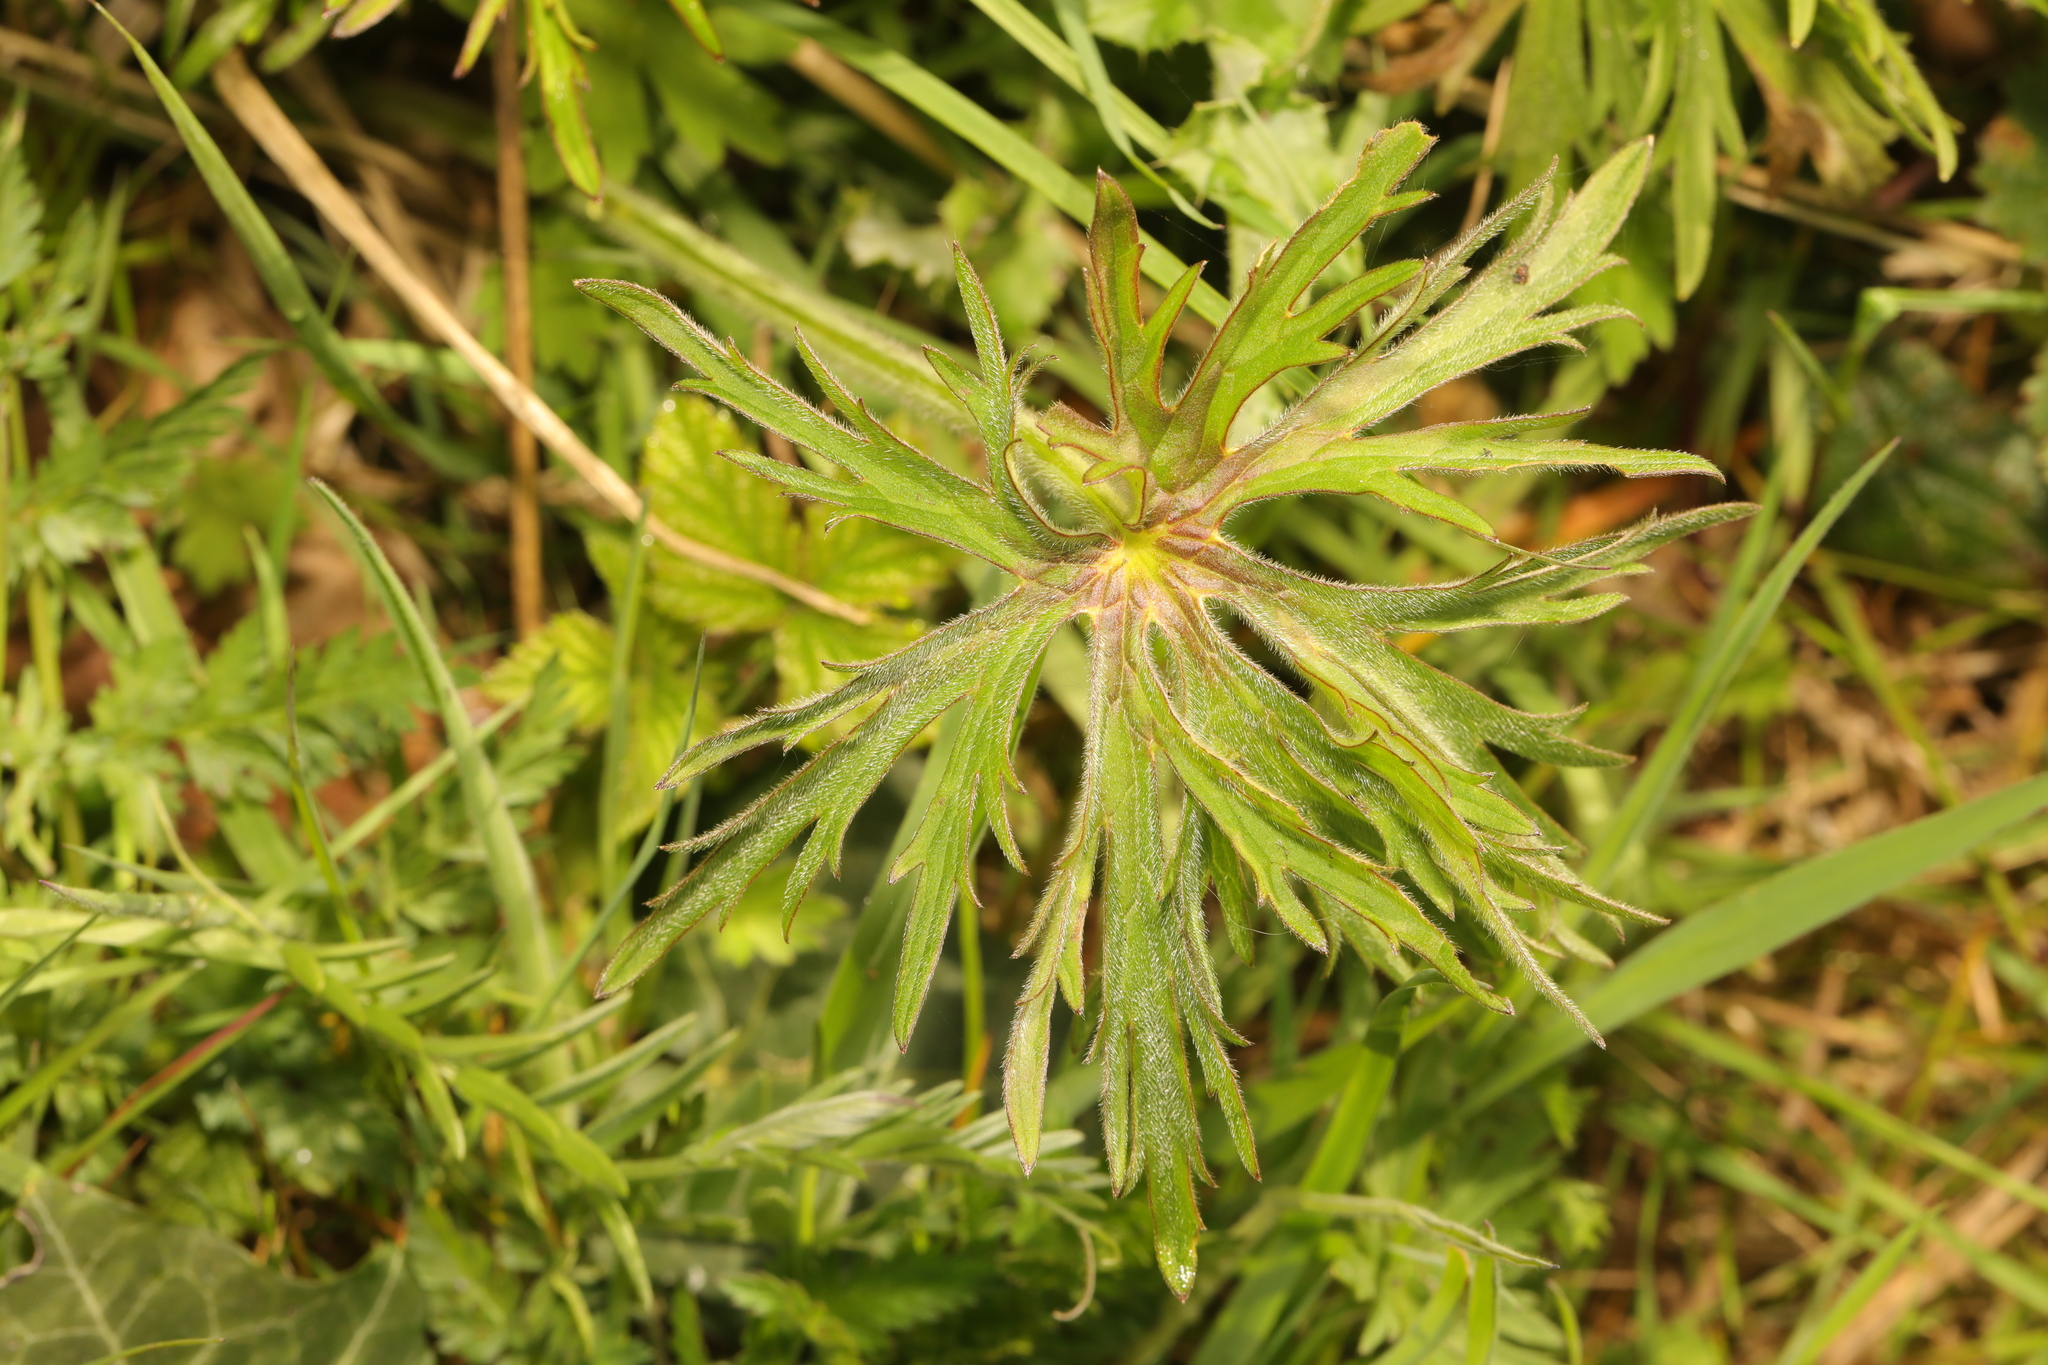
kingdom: Plantae
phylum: Tracheophyta
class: Magnoliopsida
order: Ranunculales
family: Ranunculaceae
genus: Ranunculus
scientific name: Ranunculus acris
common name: Meadow buttercup
